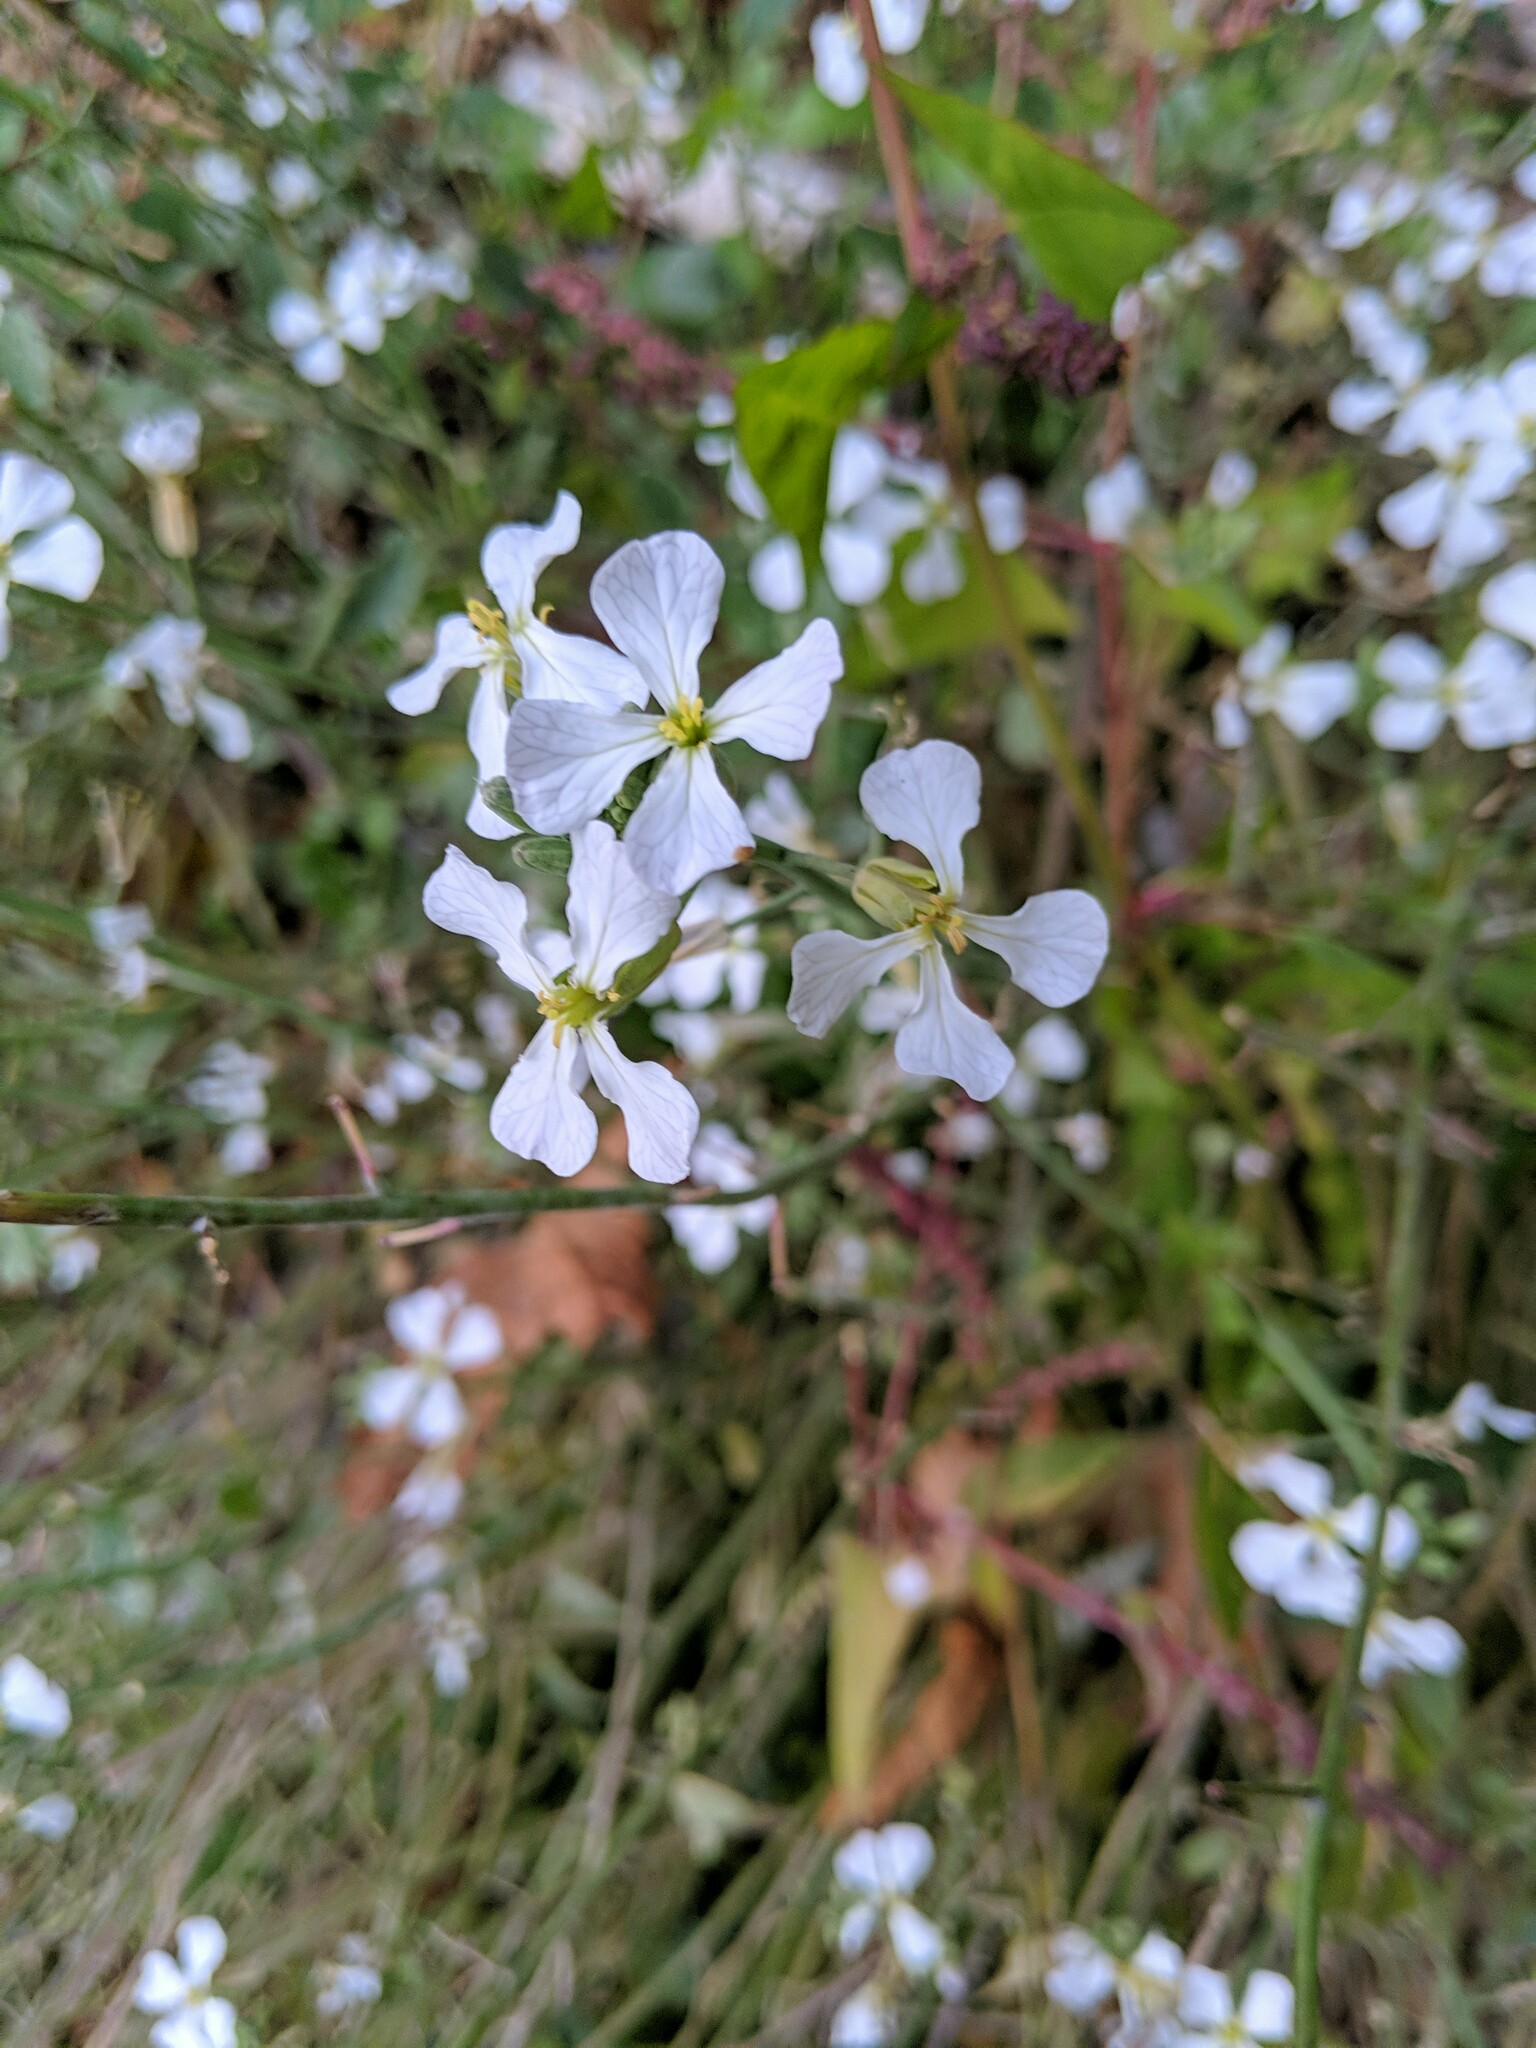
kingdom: Plantae
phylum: Tracheophyta
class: Magnoliopsida
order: Brassicales
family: Brassicaceae
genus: Raphanus
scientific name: Raphanus sativus
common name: Cultivated radish
